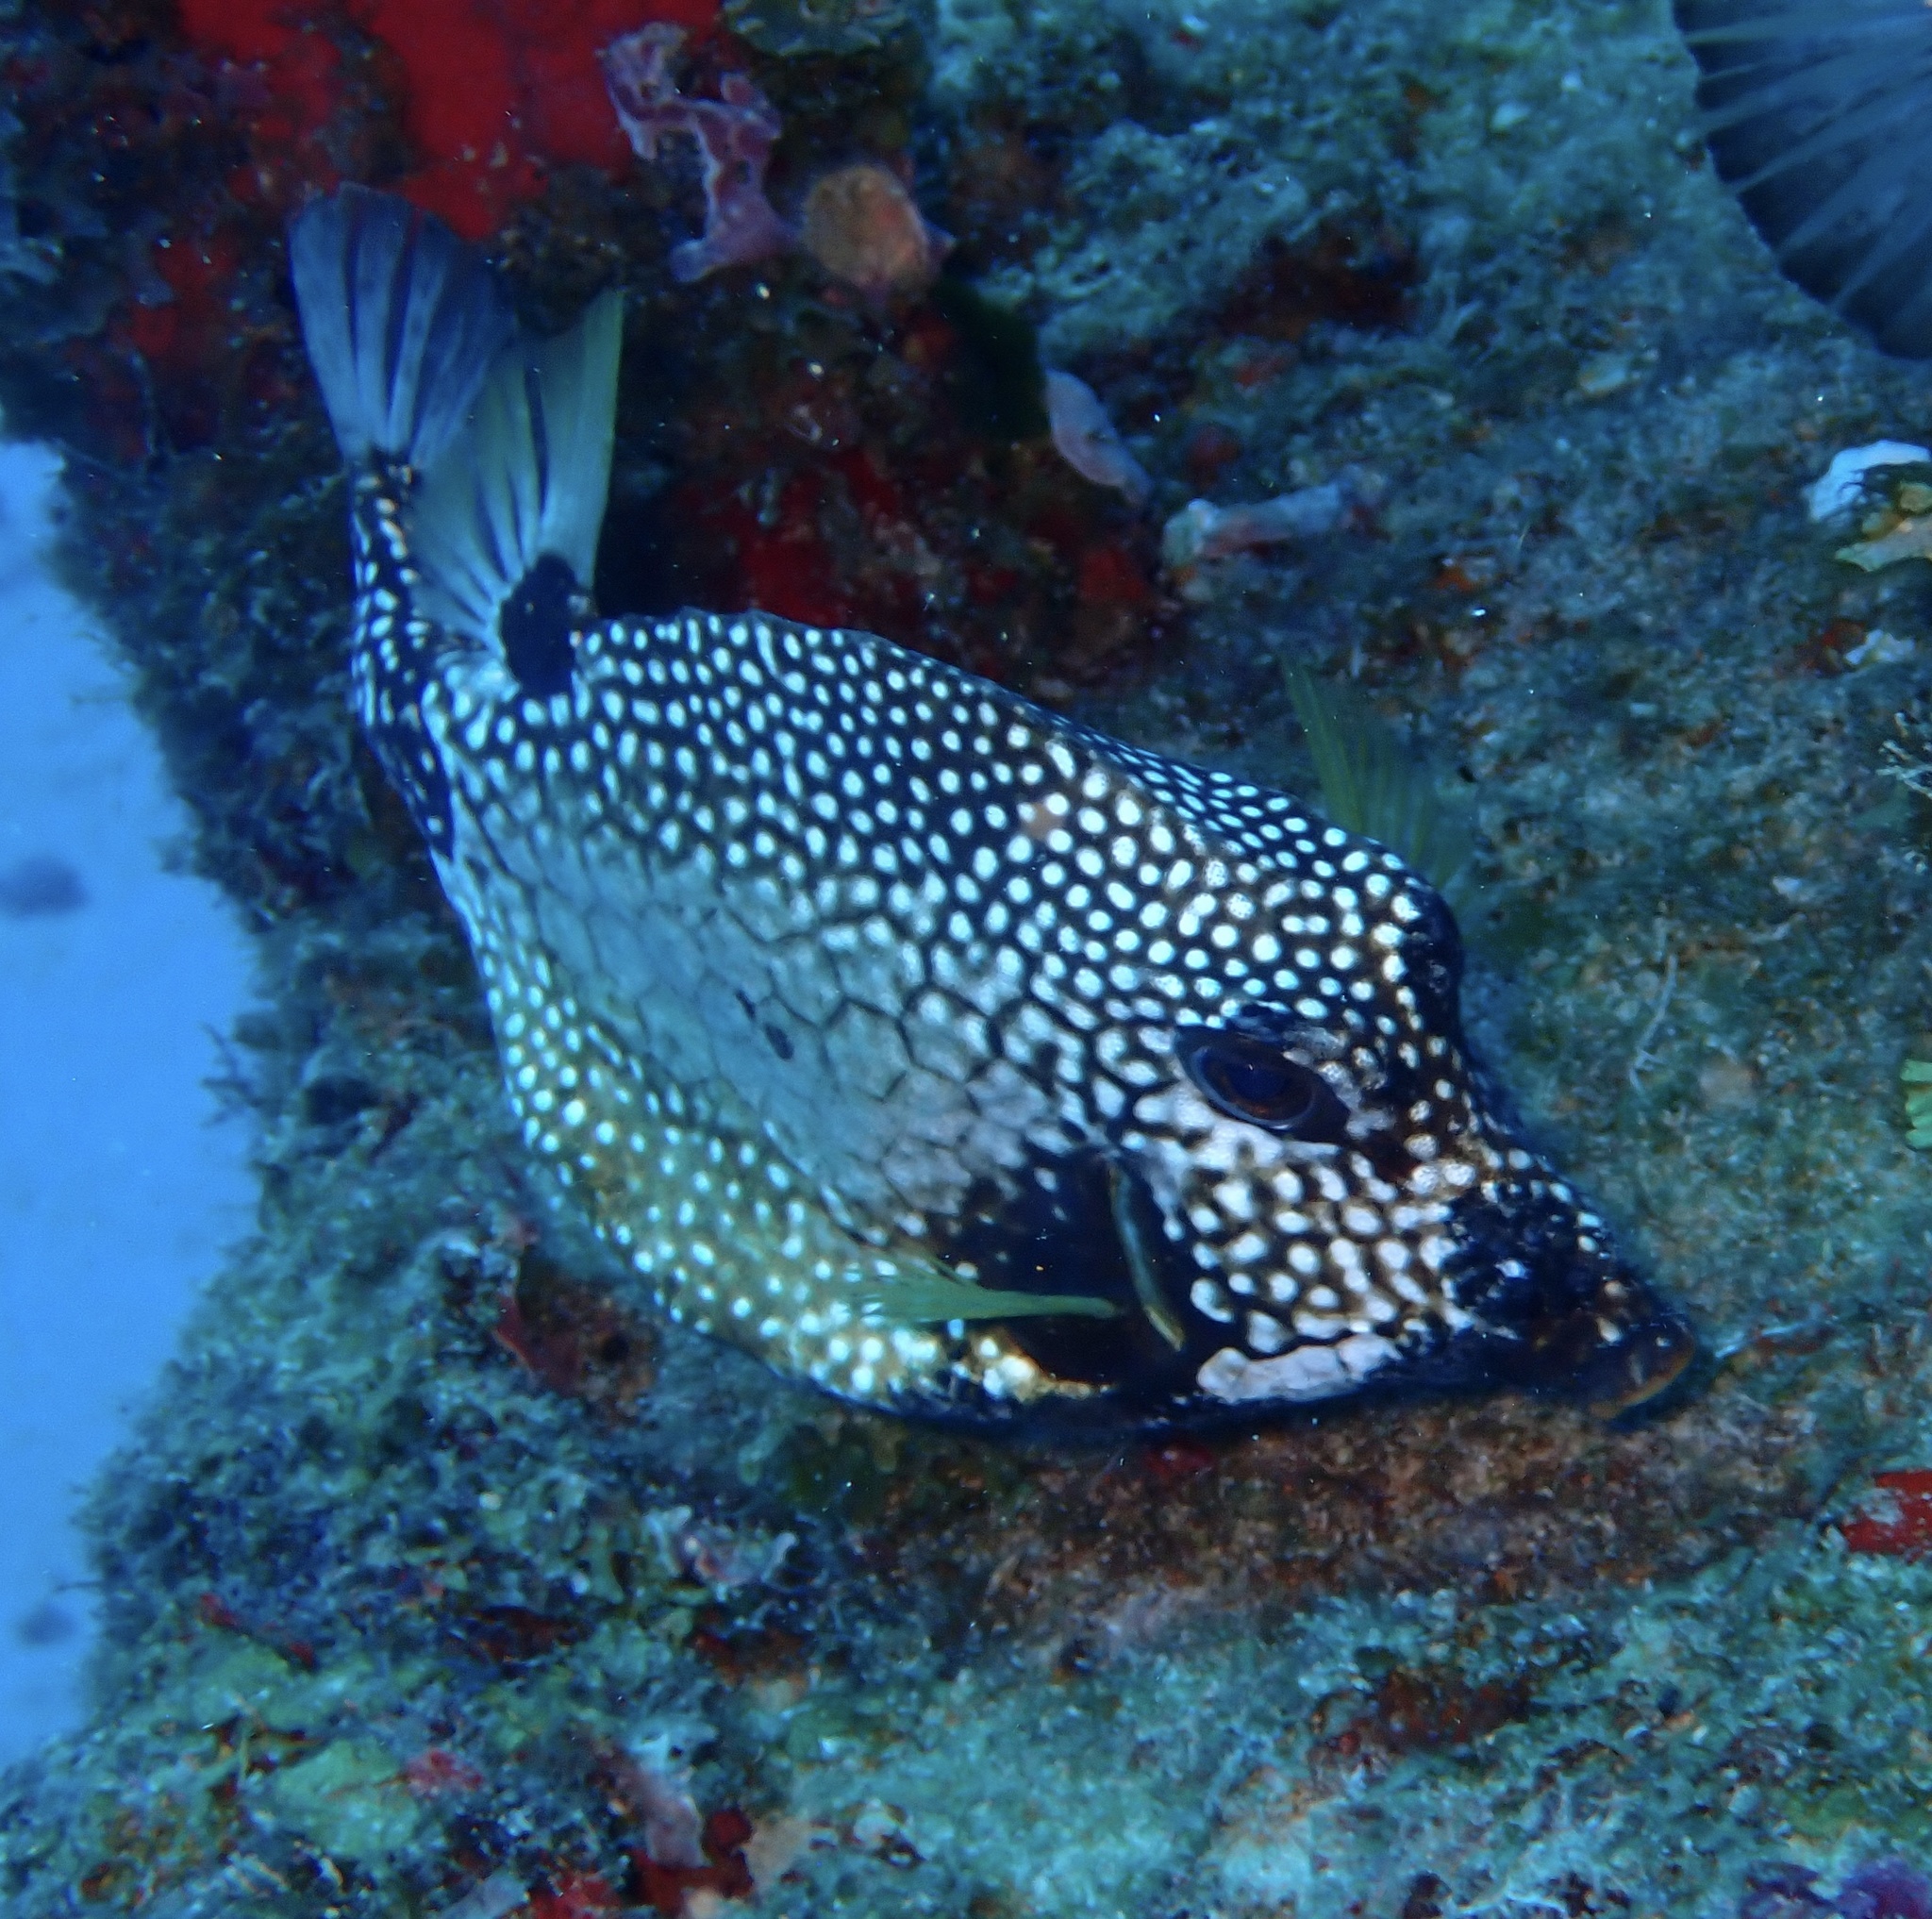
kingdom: Animalia
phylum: Chordata
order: Tetraodontiformes
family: Ostraciidae
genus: Lactophrys
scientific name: Lactophrys triqueter
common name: Smooth trunkfish
